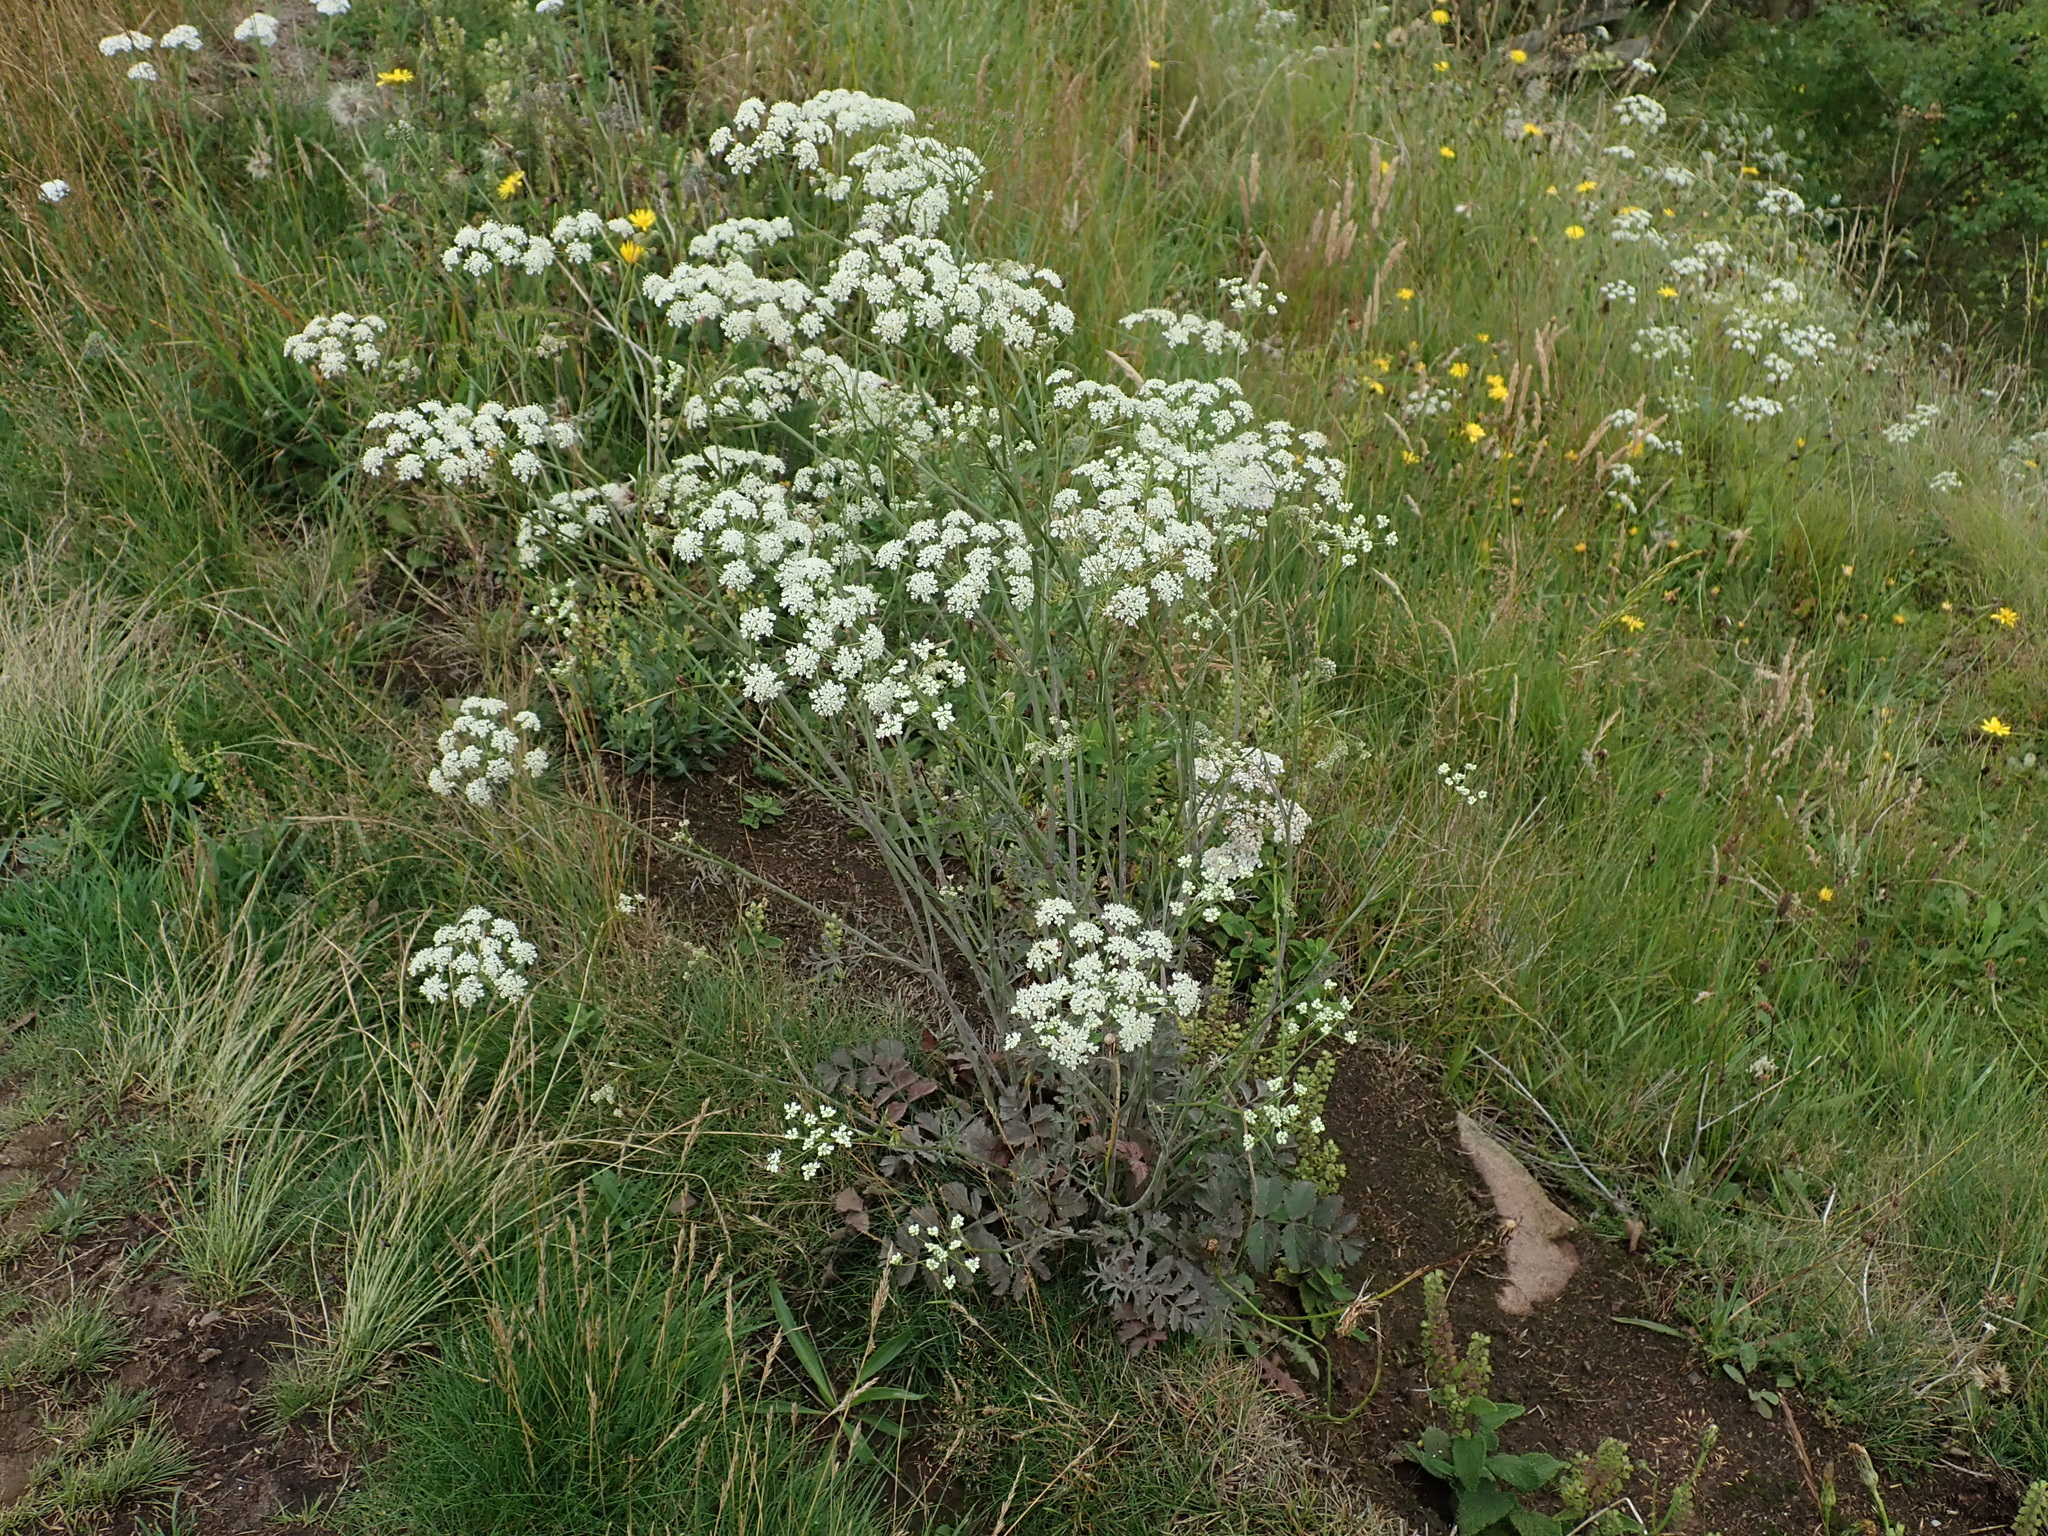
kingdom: Plantae
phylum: Tracheophyta
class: Magnoliopsida
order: Apiales
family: Apiaceae
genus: Pimpinella
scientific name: Pimpinella saxifraga
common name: Burnet-saxifrage
